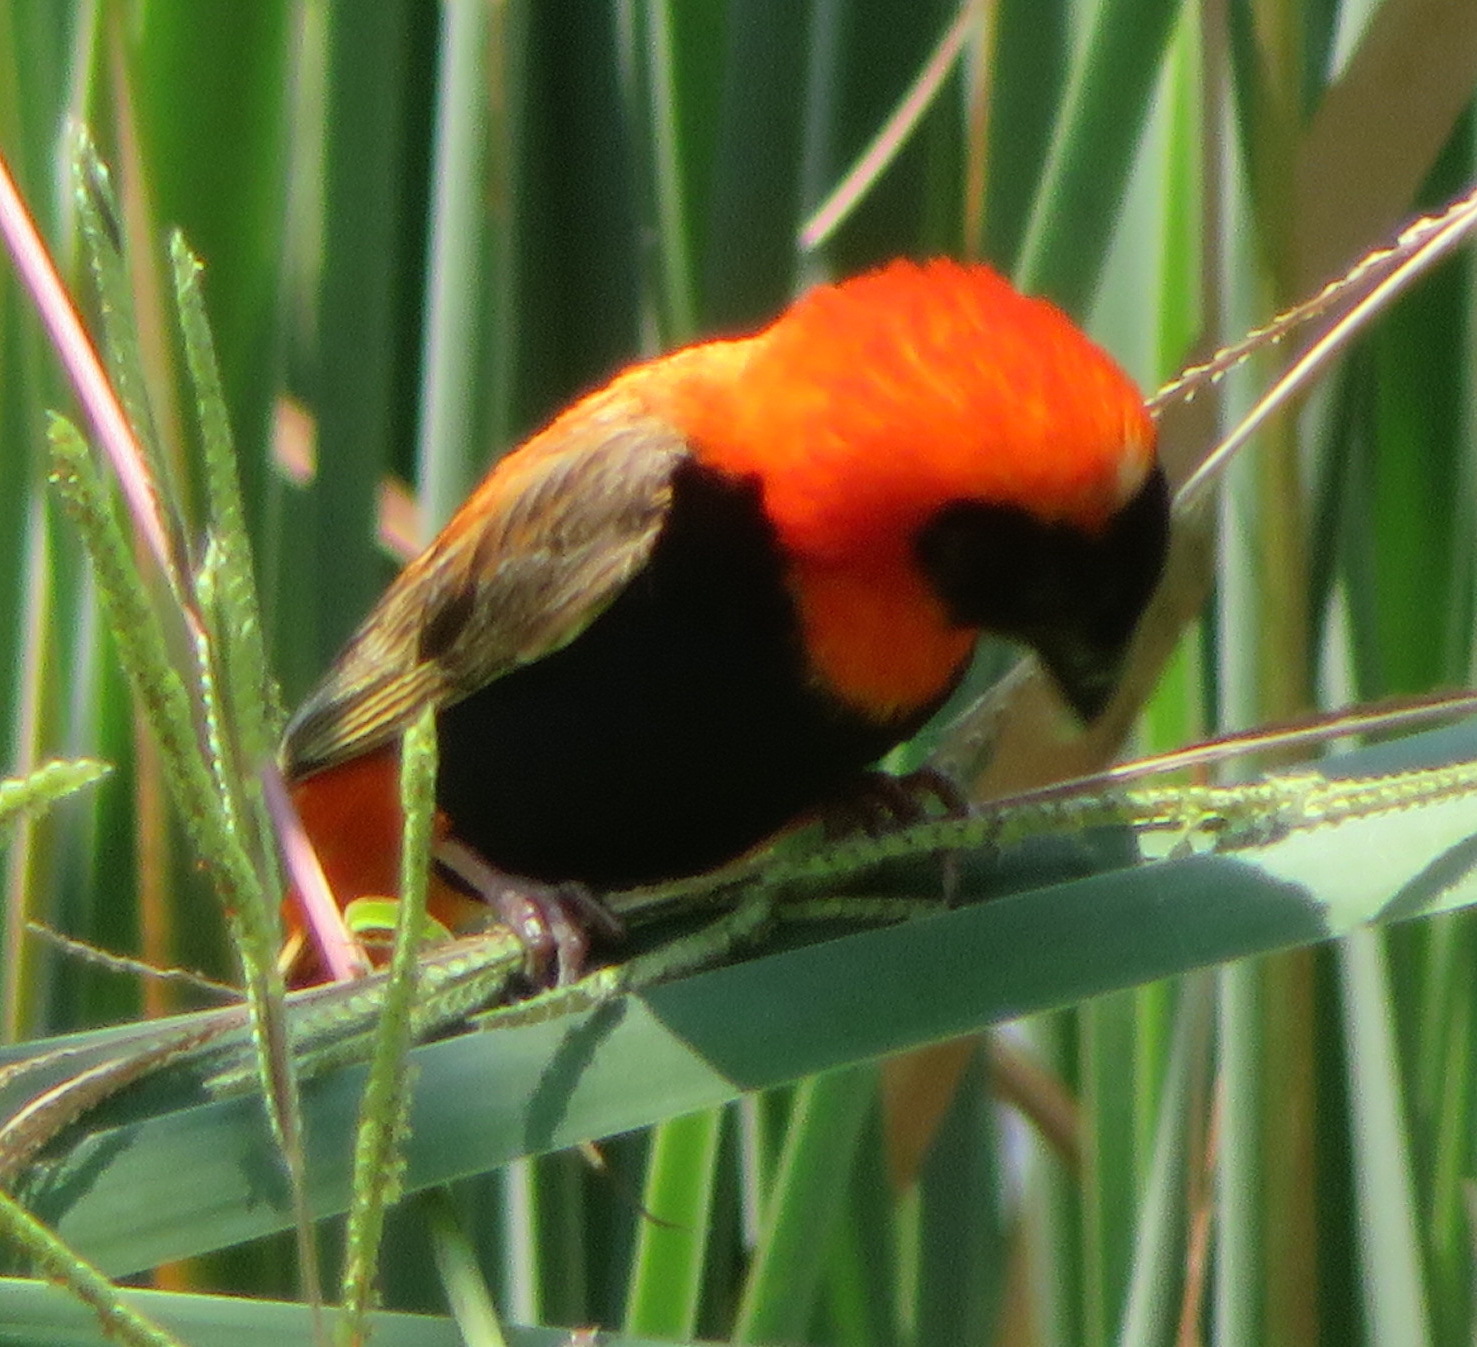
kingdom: Animalia
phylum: Chordata
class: Aves
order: Passeriformes
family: Ploceidae
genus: Euplectes
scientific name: Euplectes orix
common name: Southern red bishop
